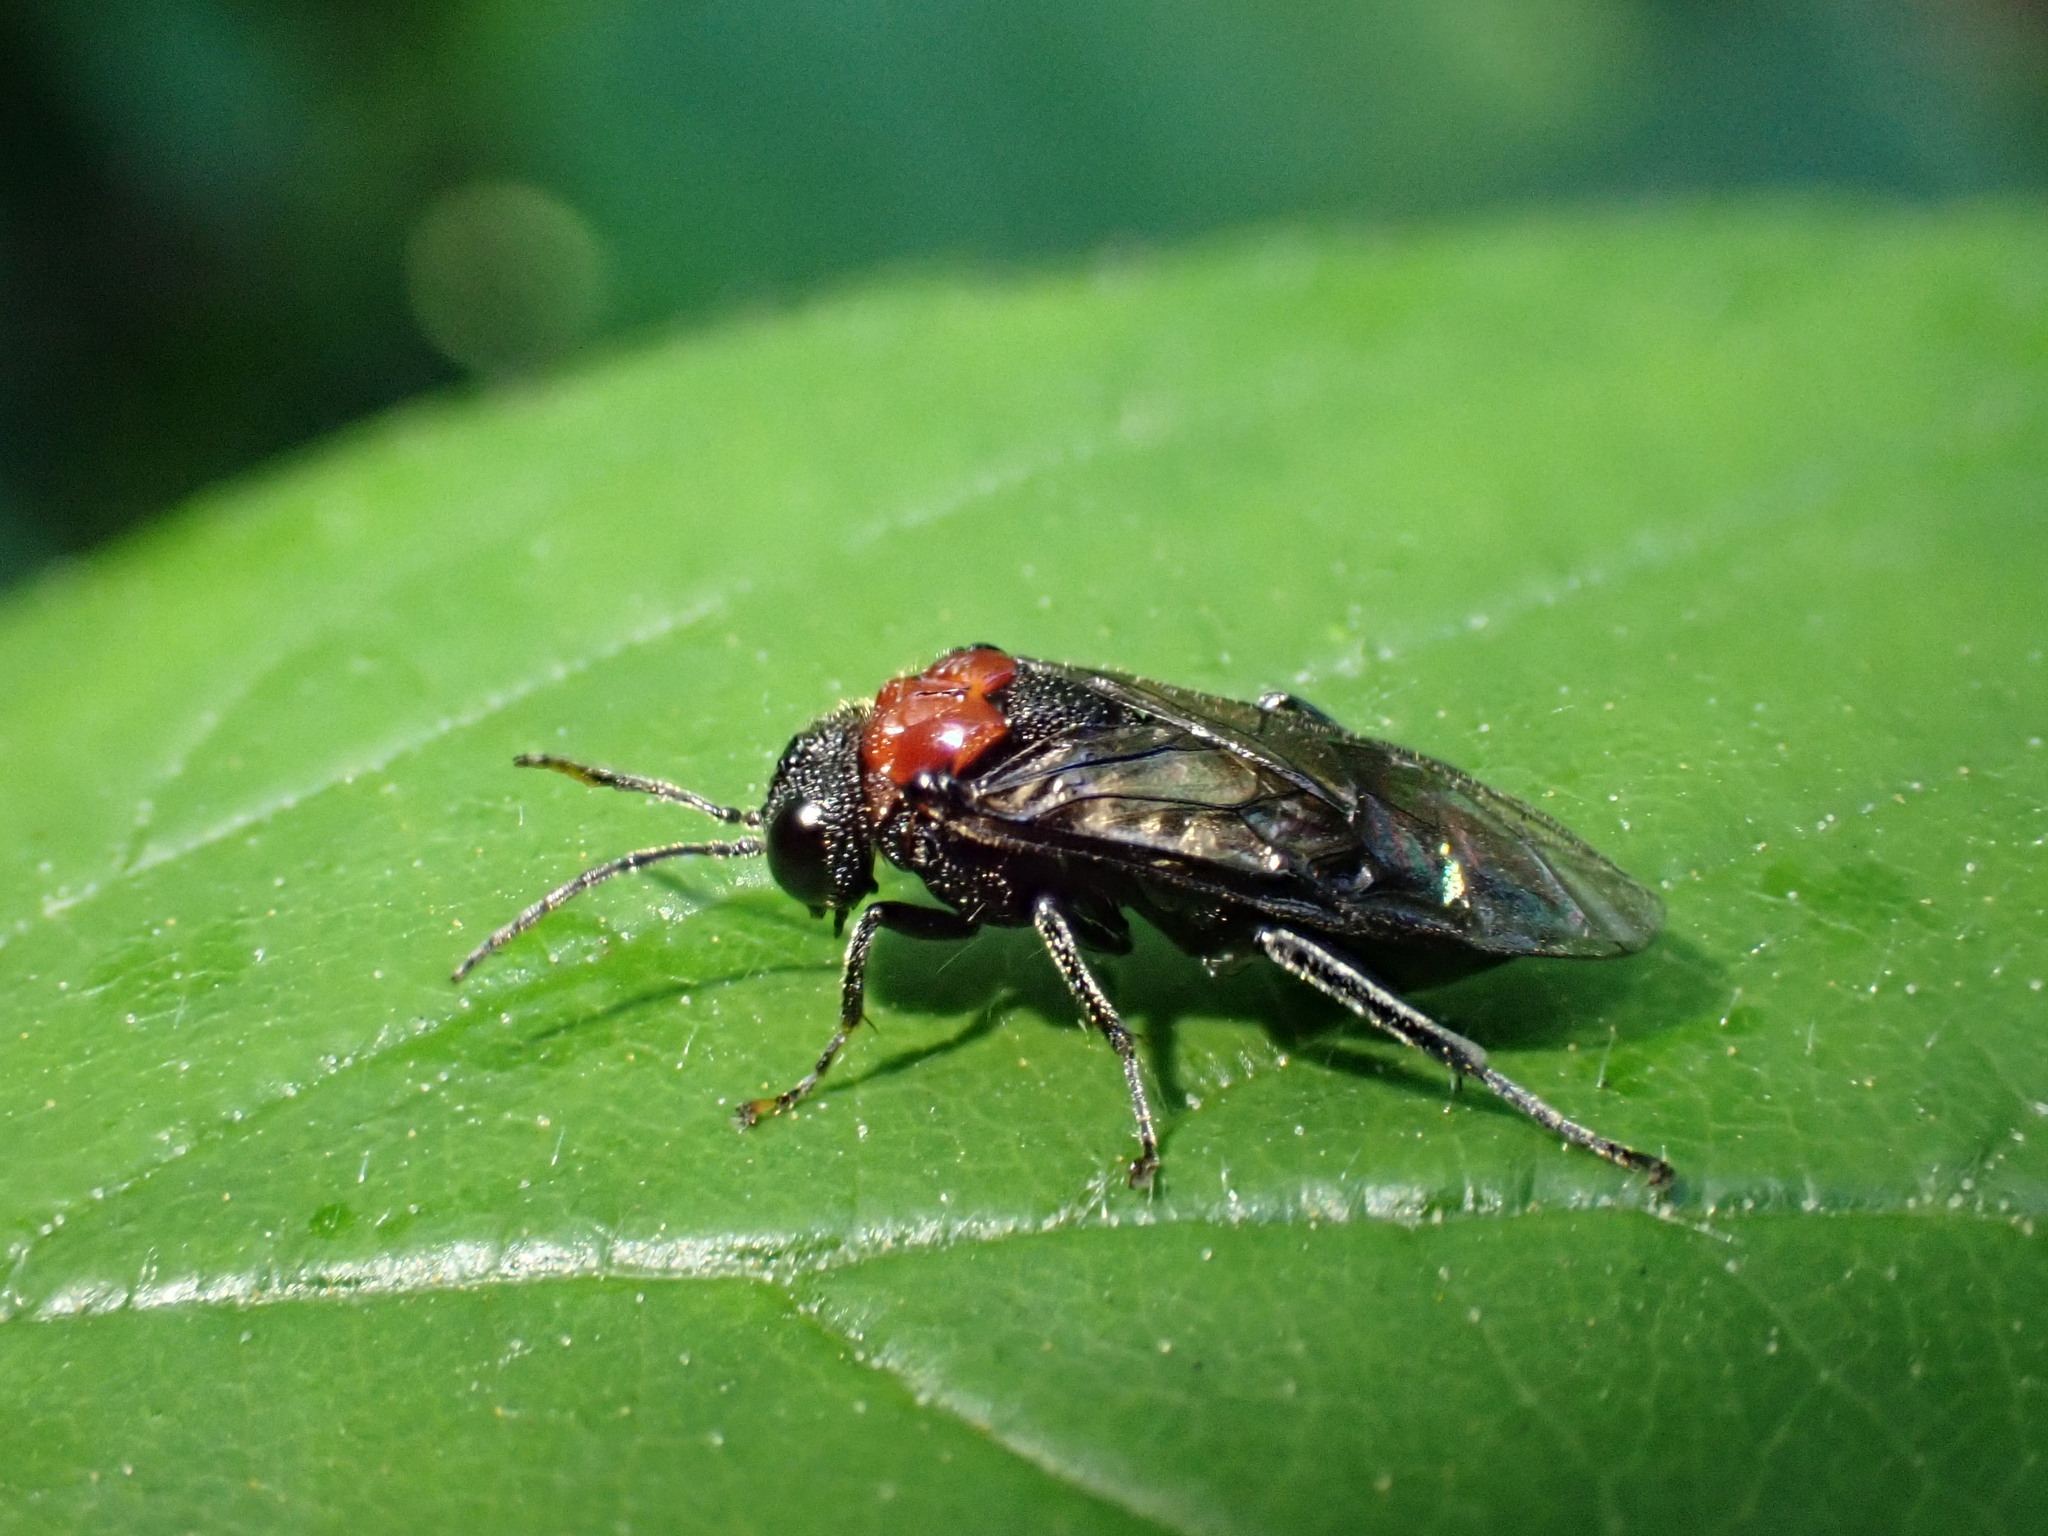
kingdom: Animalia
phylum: Arthropoda
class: Insecta
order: Hymenoptera
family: Tenthredinidae
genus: Eriocampa
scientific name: Eriocampa ovata
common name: Alder wooly sawfly
